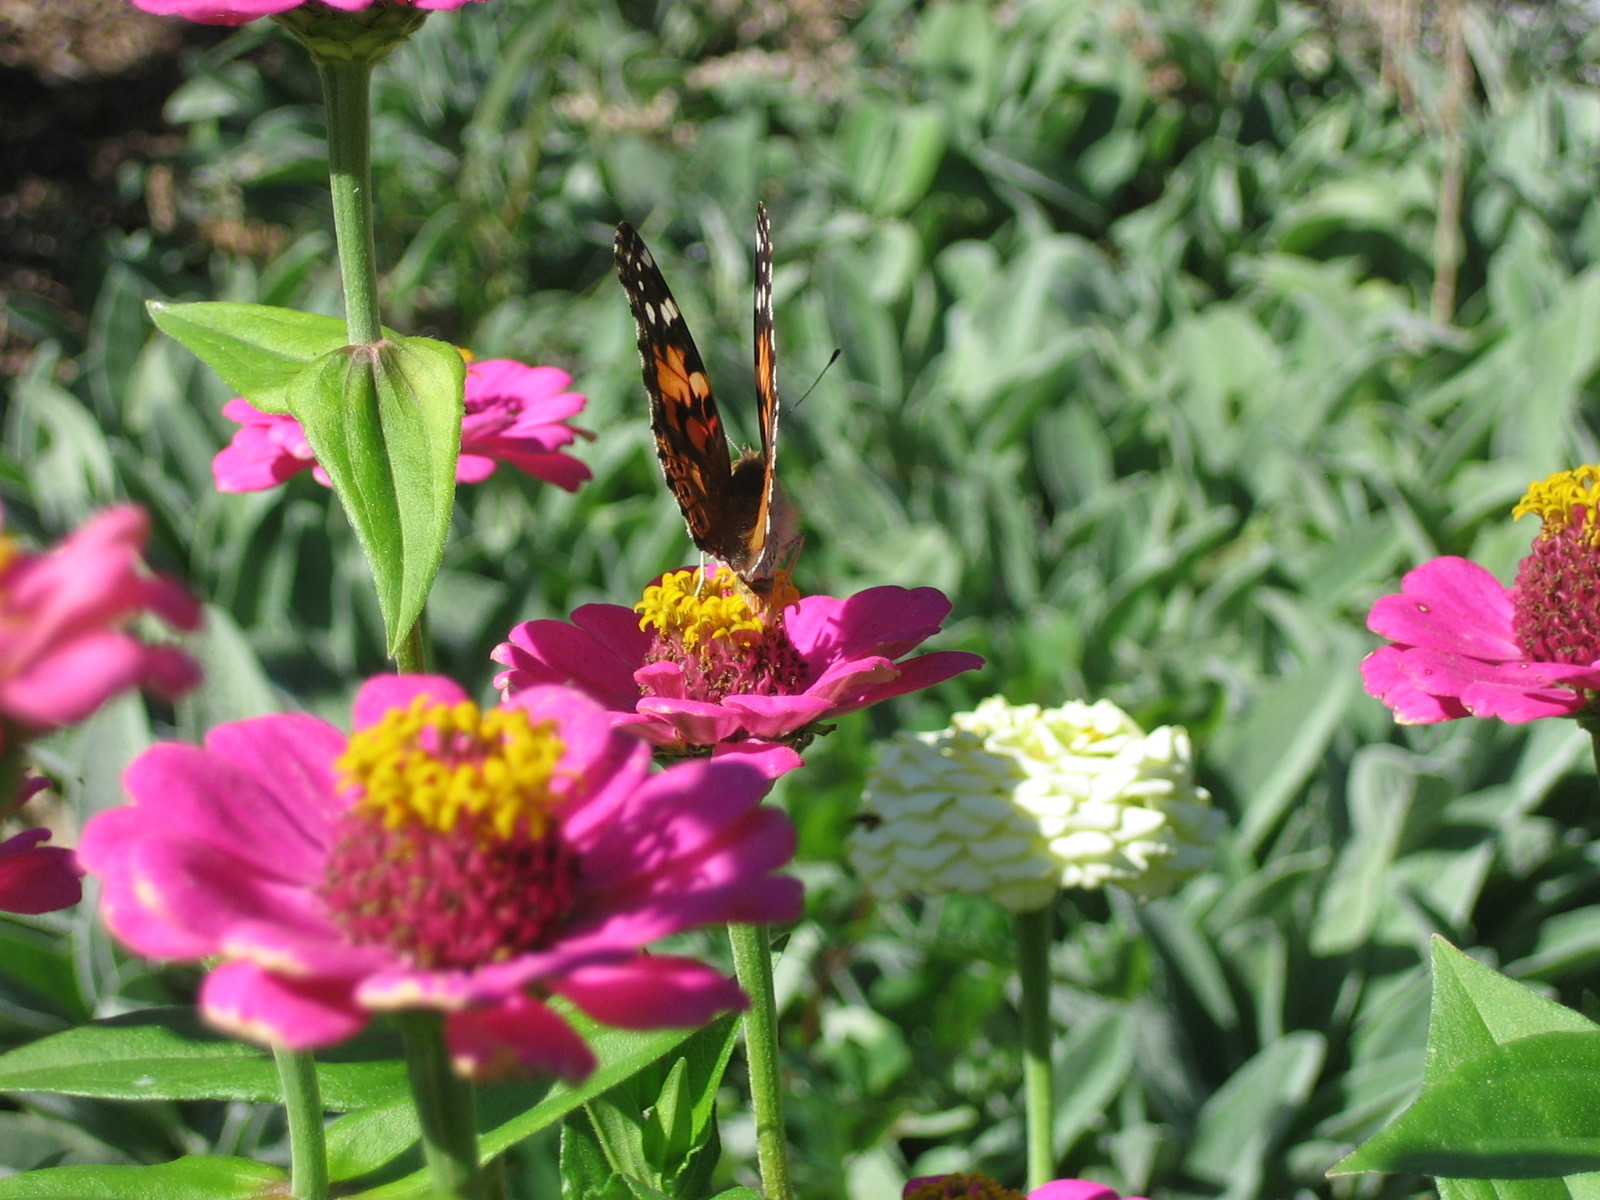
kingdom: Animalia
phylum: Arthropoda
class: Insecta
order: Lepidoptera
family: Nymphalidae
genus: Vanessa
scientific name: Vanessa cardui
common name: Painted lady
